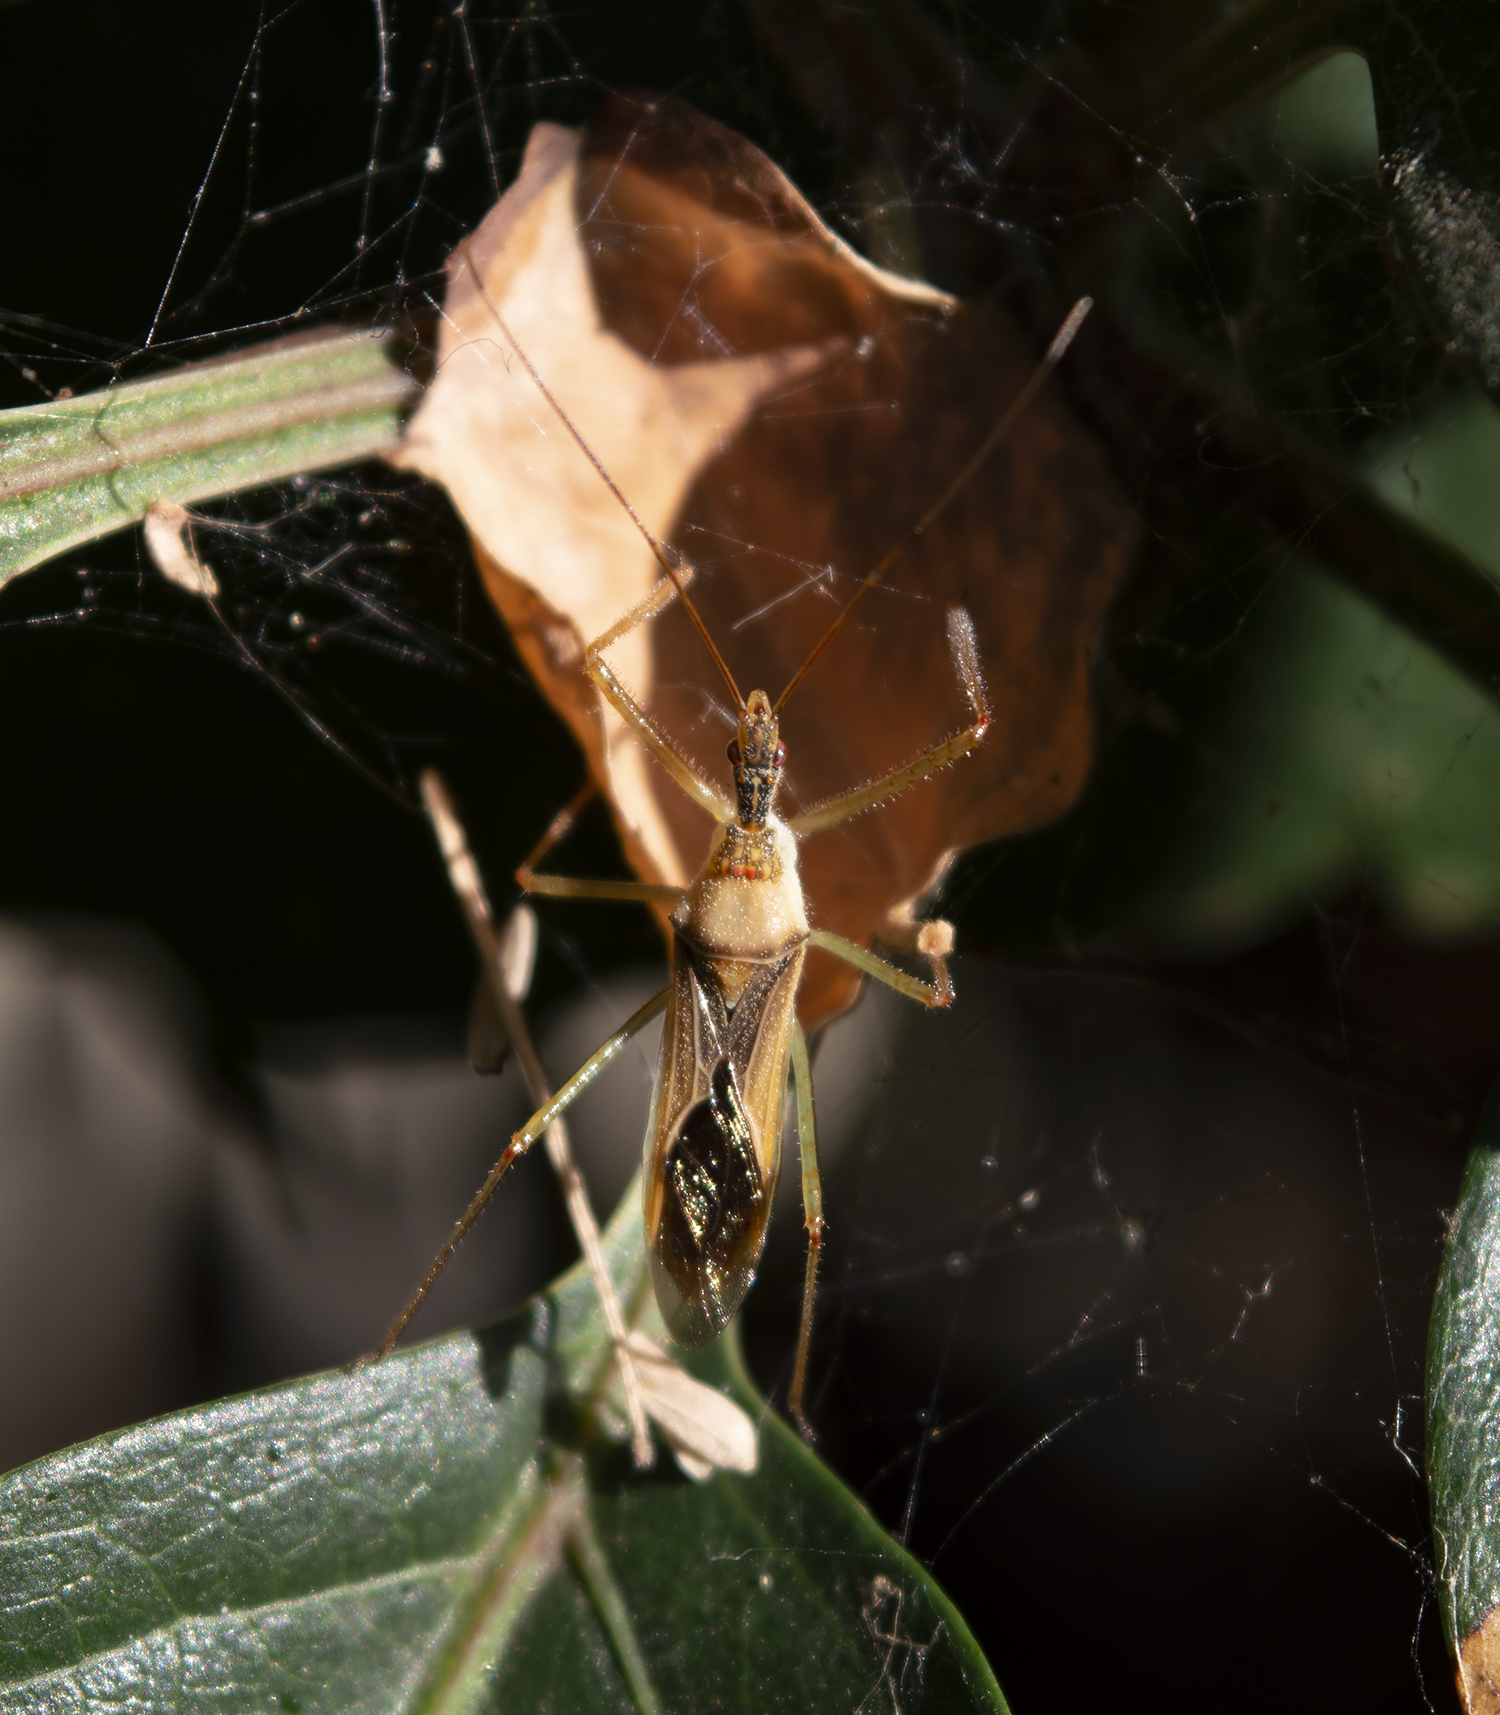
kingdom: Animalia
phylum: Arthropoda
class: Insecta
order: Hemiptera
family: Reduviidae
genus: Zelus
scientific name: Zelus renardii
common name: Assassin bug
